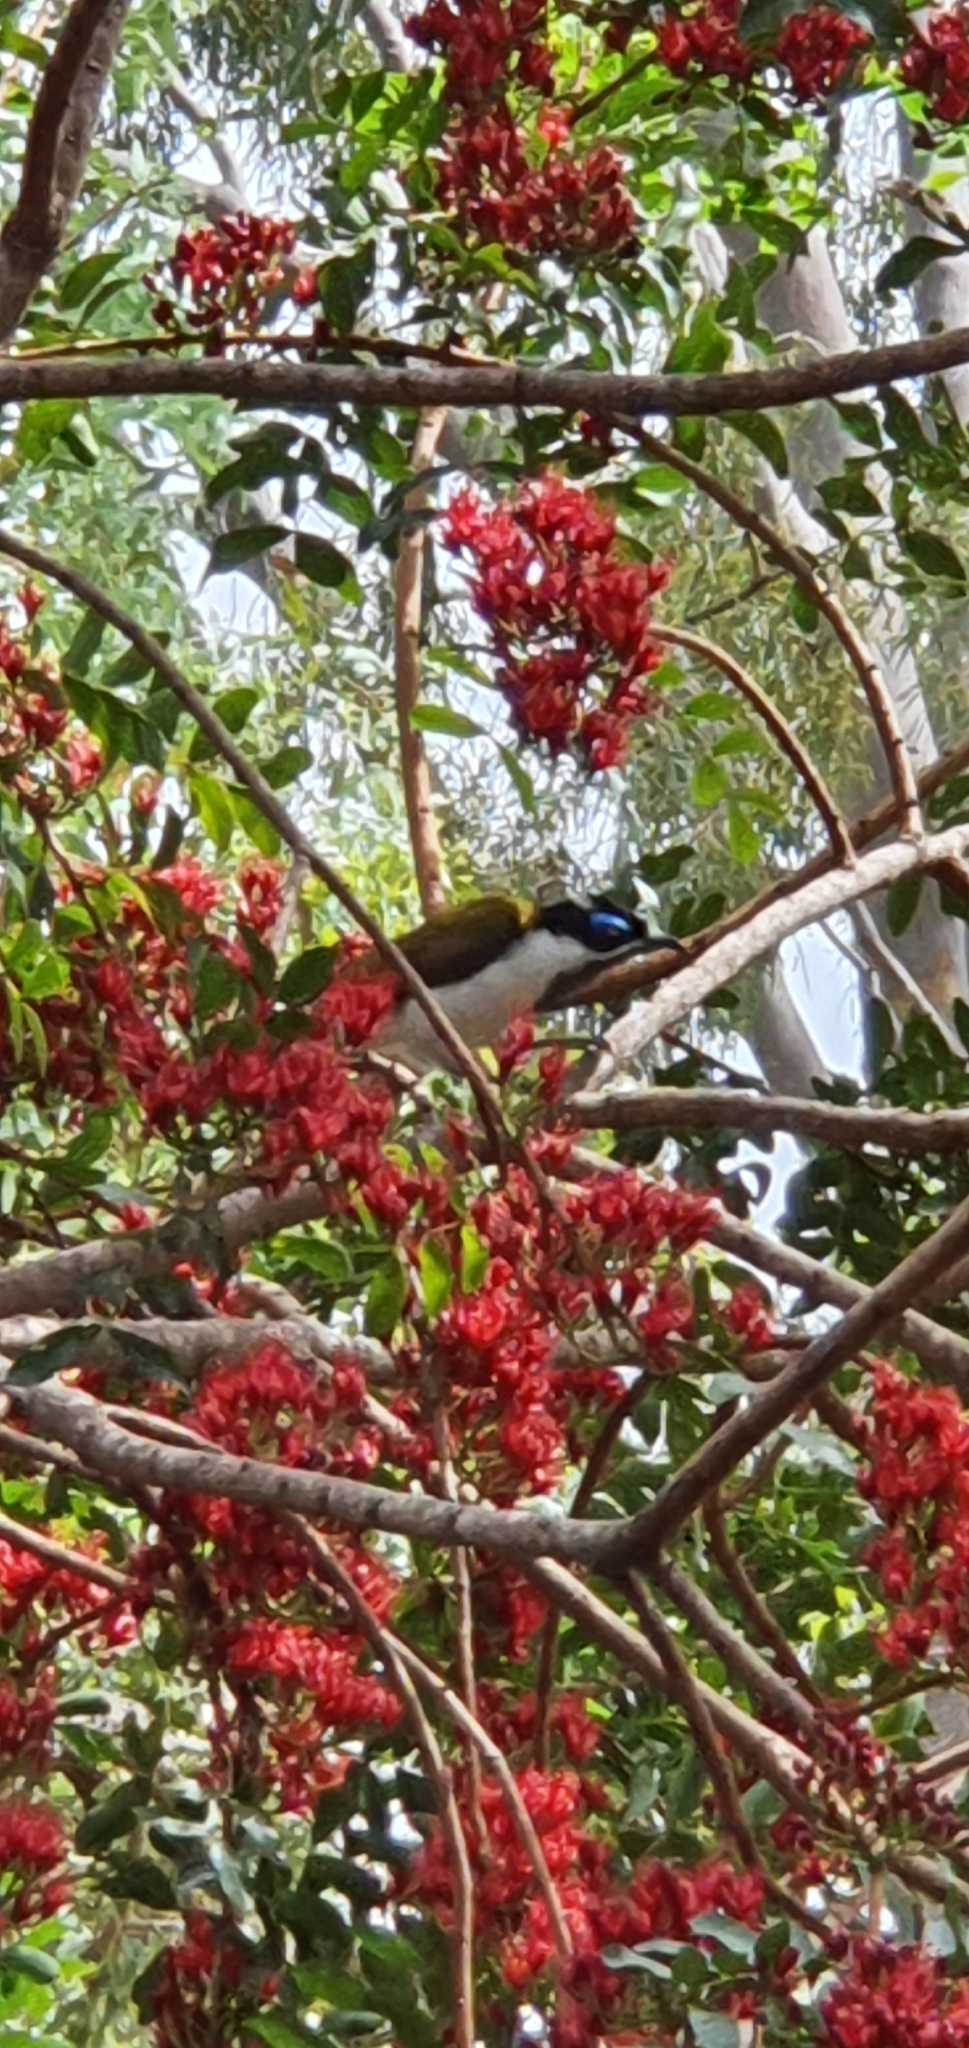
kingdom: Animalia
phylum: Chordata
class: Aves
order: Passeriformes
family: Meliphagidae
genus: Entomyzon
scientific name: Entomyzon cyanotis
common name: Blue-faced honeyeater
